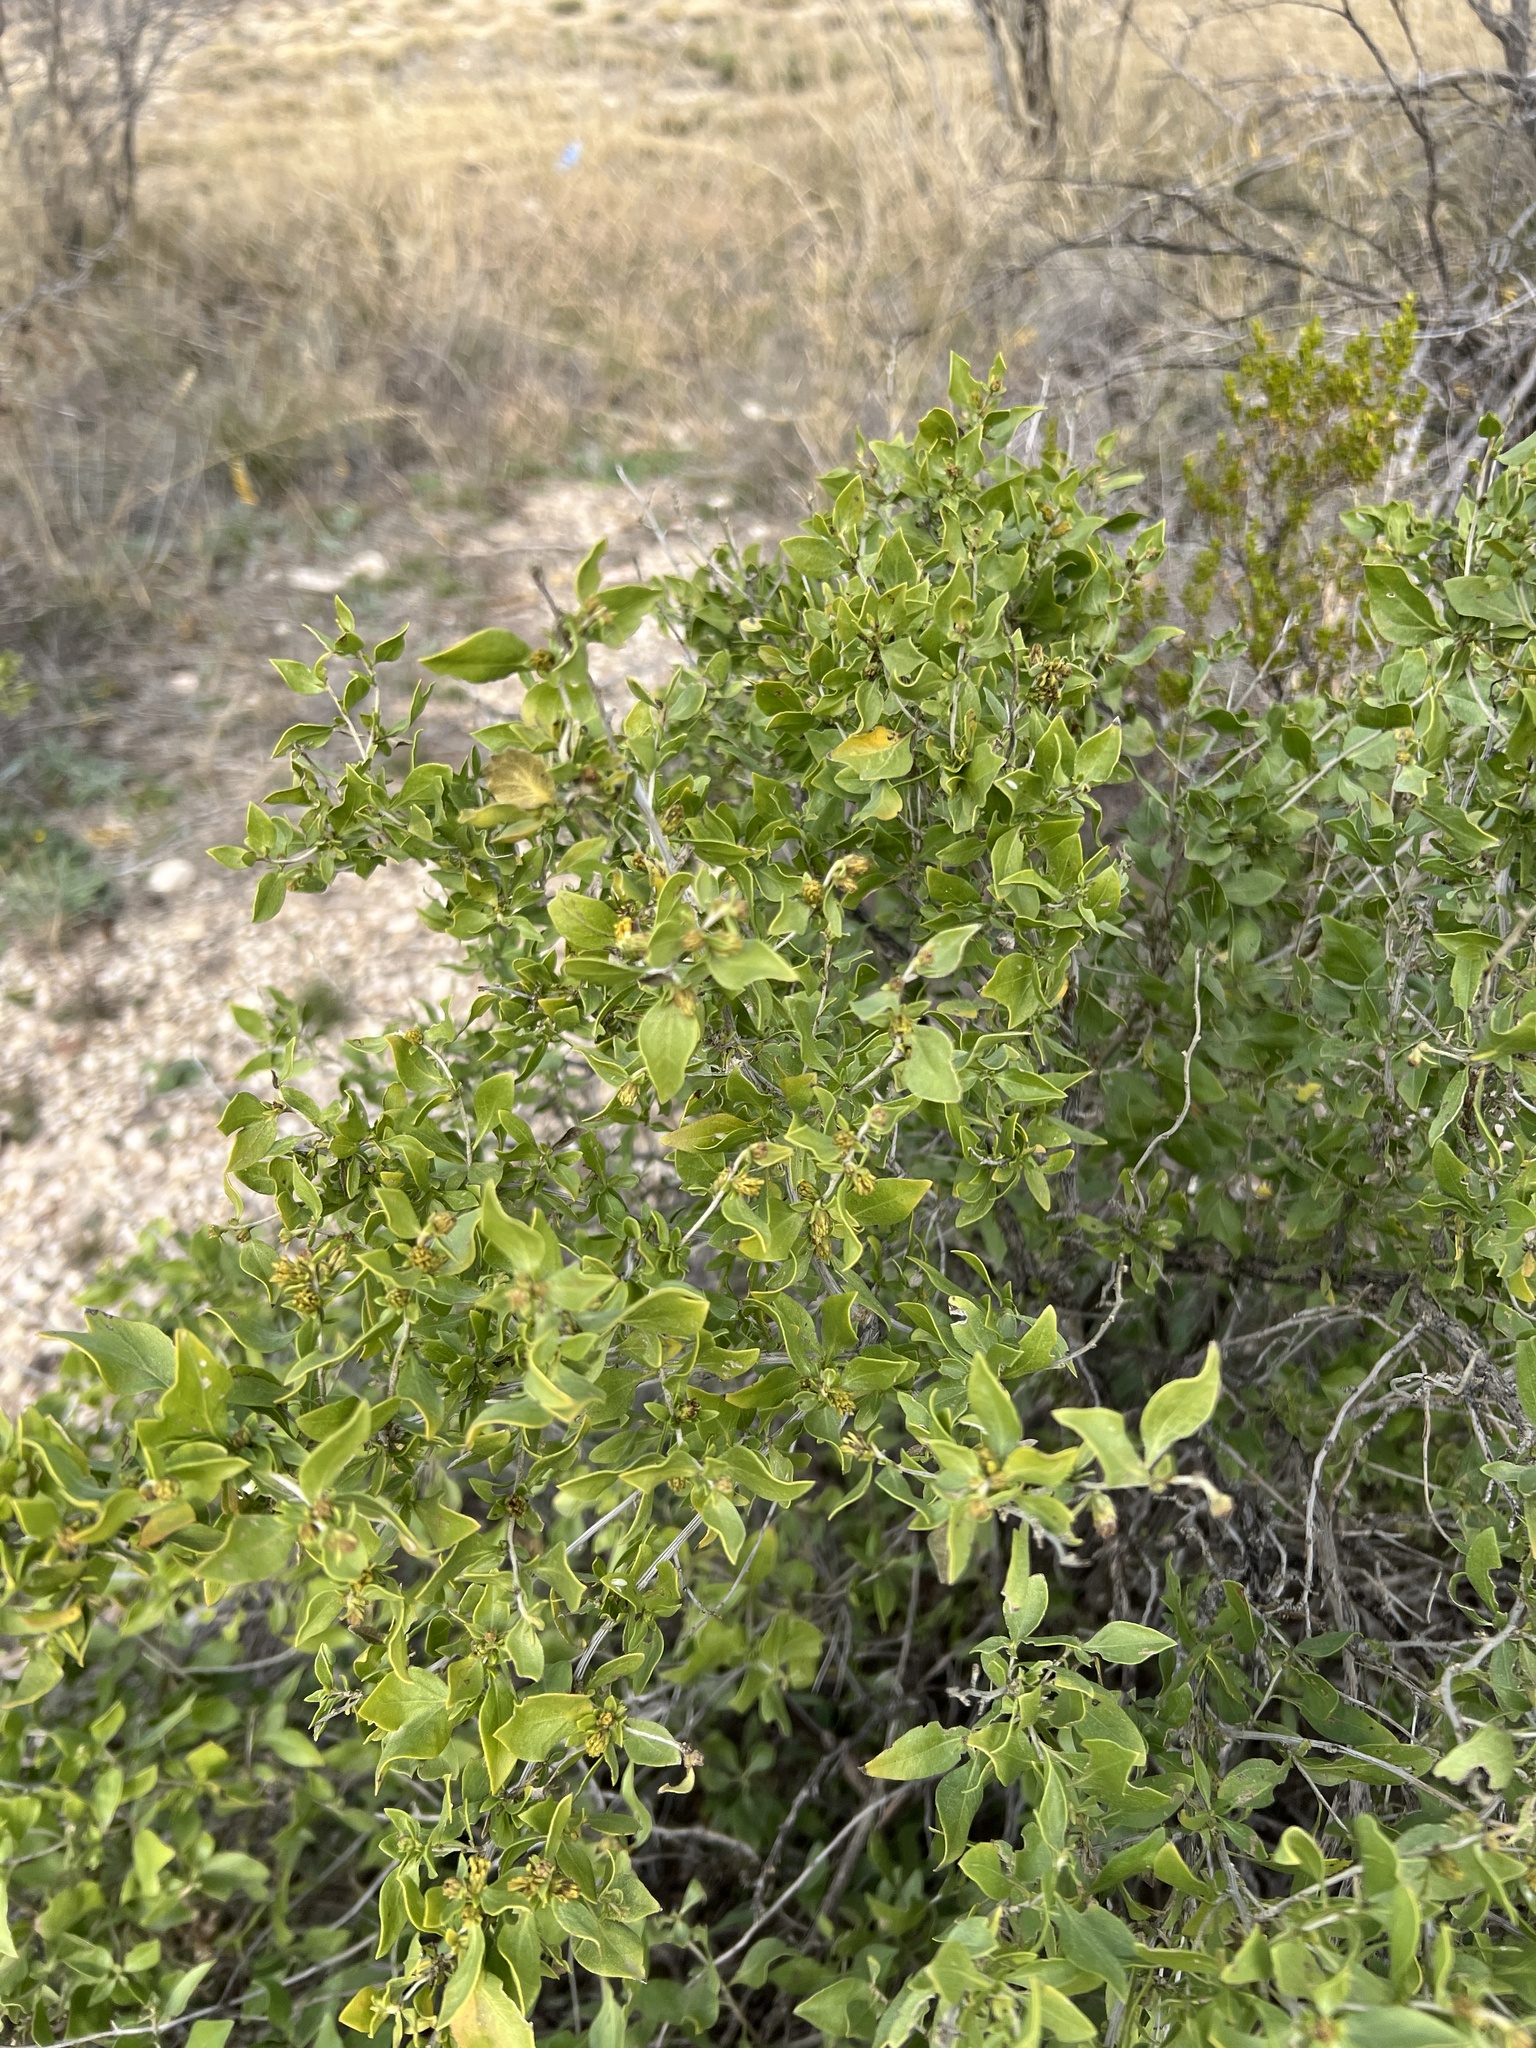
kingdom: Plantae
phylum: Tracheophyta
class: Magnoliopsida
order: Asterales
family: Asteraceae
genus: Flourensia
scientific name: Flourensia cernua
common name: Varnishbush
